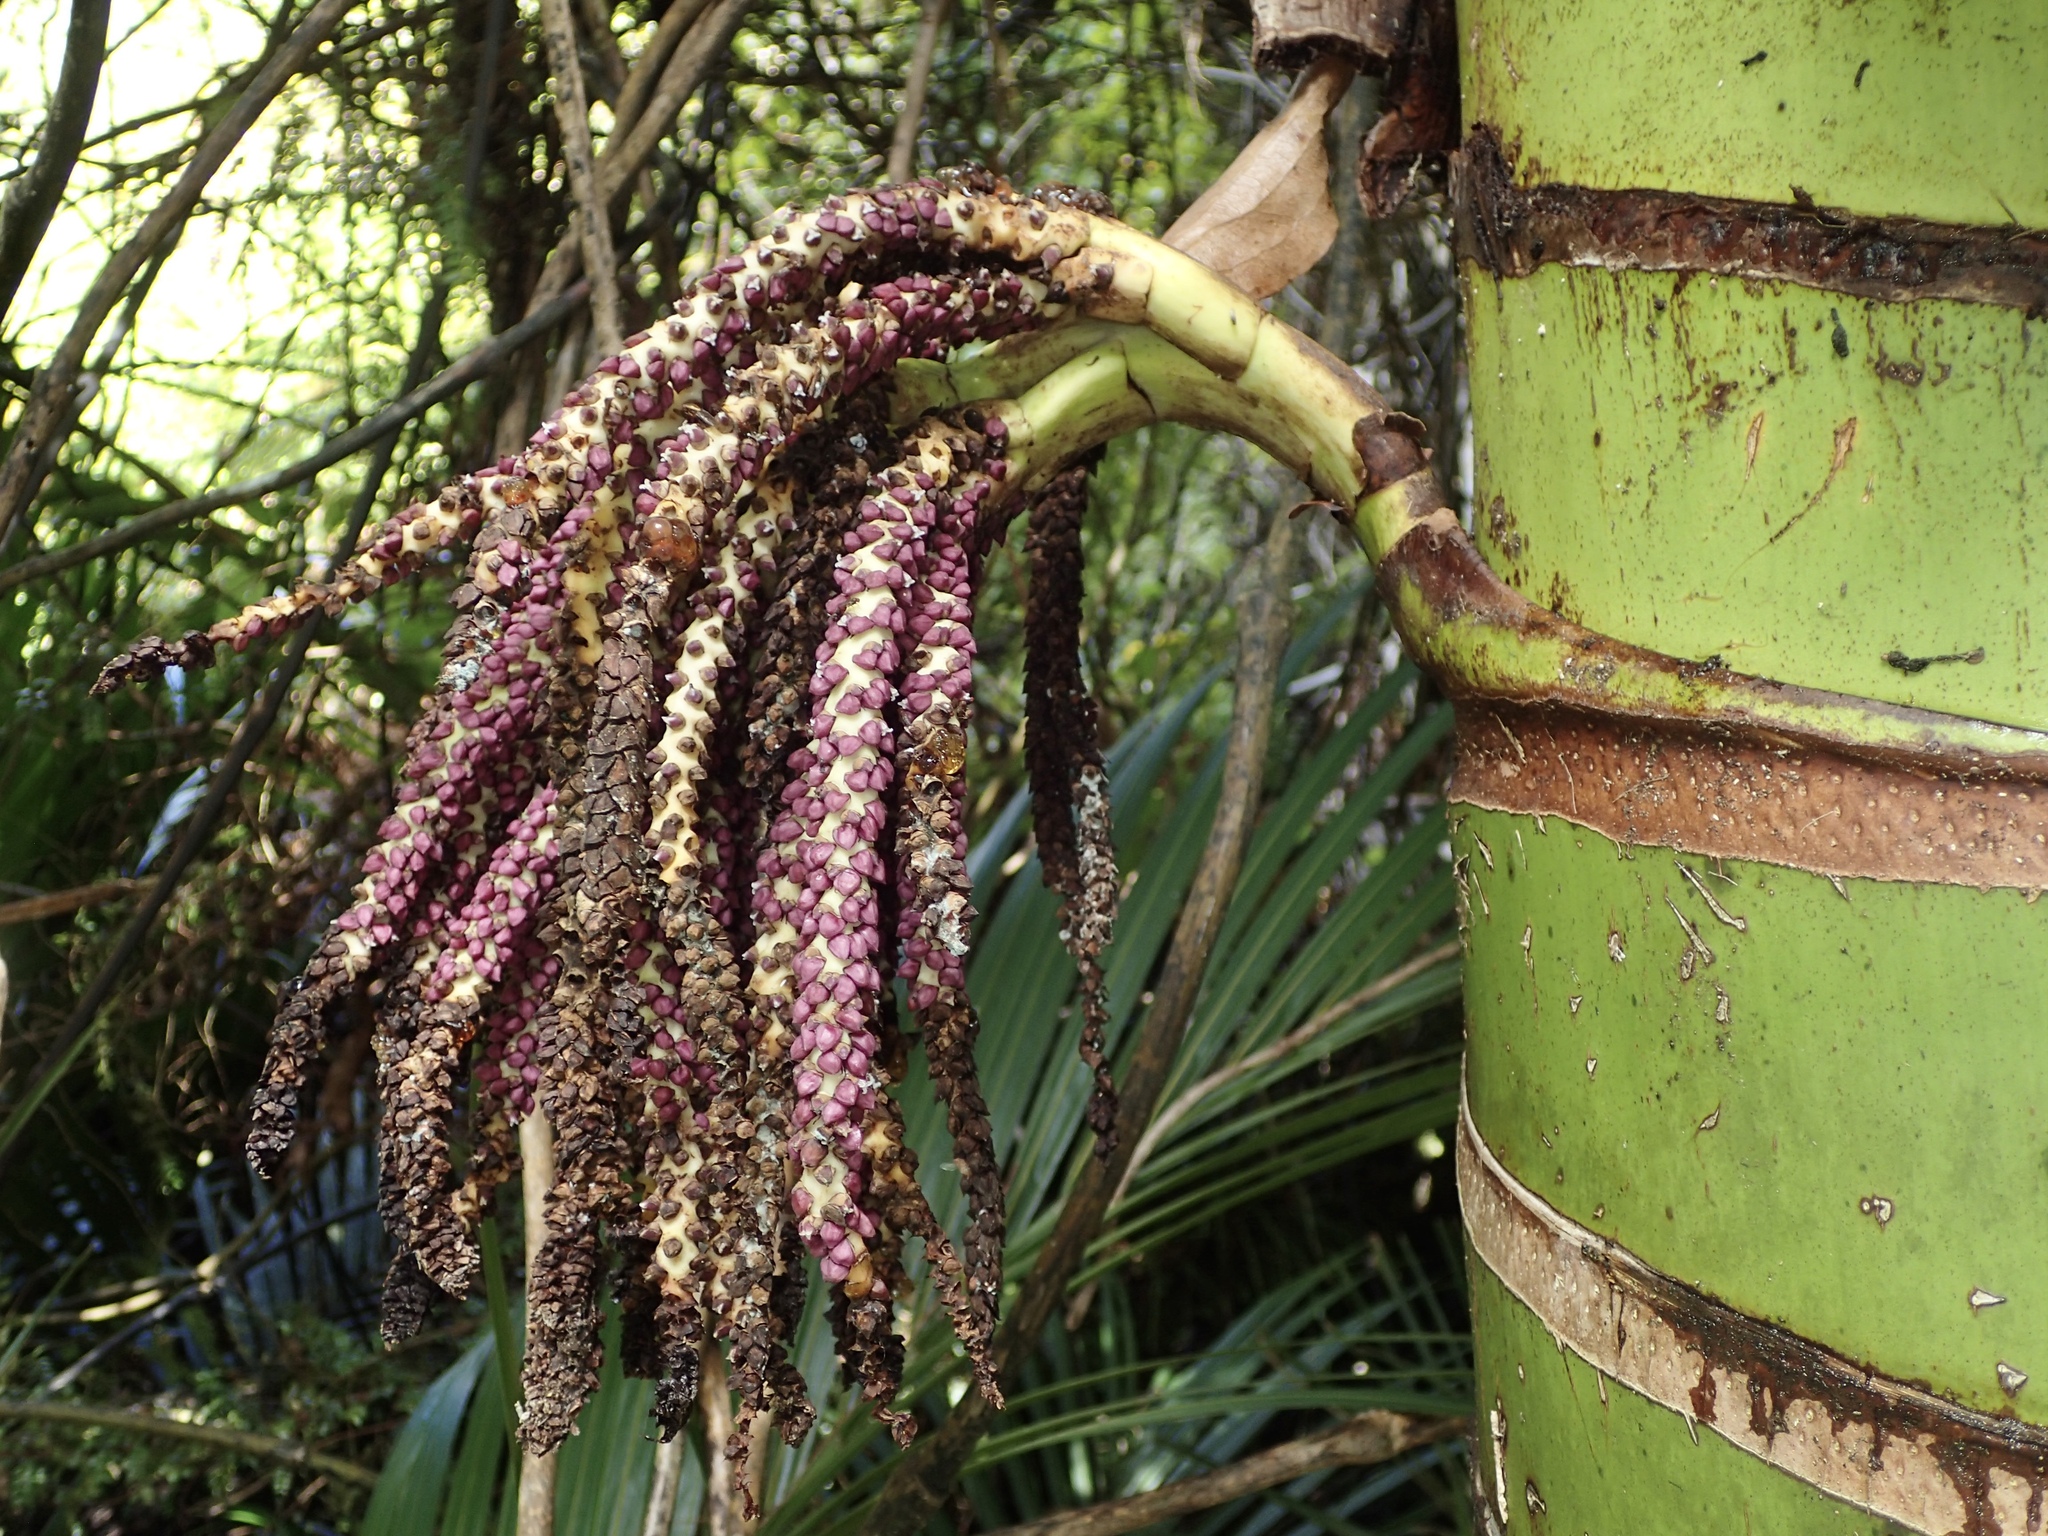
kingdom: Plantae
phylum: Tracheophyta
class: Liliopsida
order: Arecales
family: Arecaceae
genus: Rhopalostylis
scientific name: Rhopalostylis sapida
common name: Feather-duster palm
